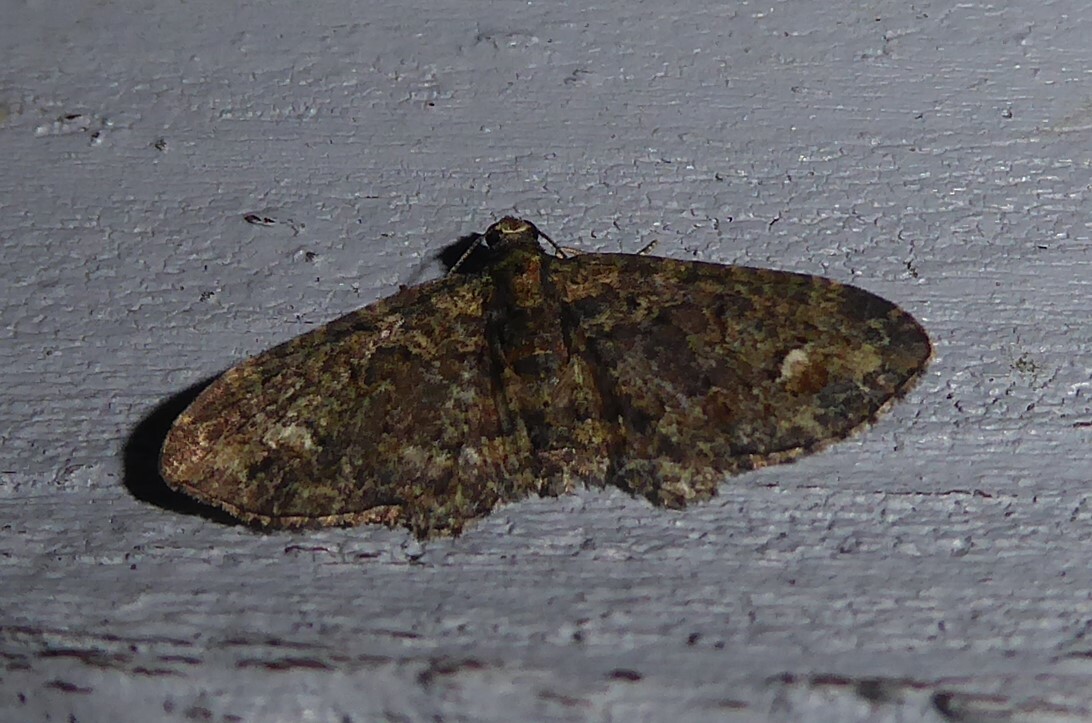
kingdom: Animalia
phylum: Arthropoda
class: Insecta
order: Lepidoptera
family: Geometridae
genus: Pasiphilodes
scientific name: Pasiphilodes testulata
